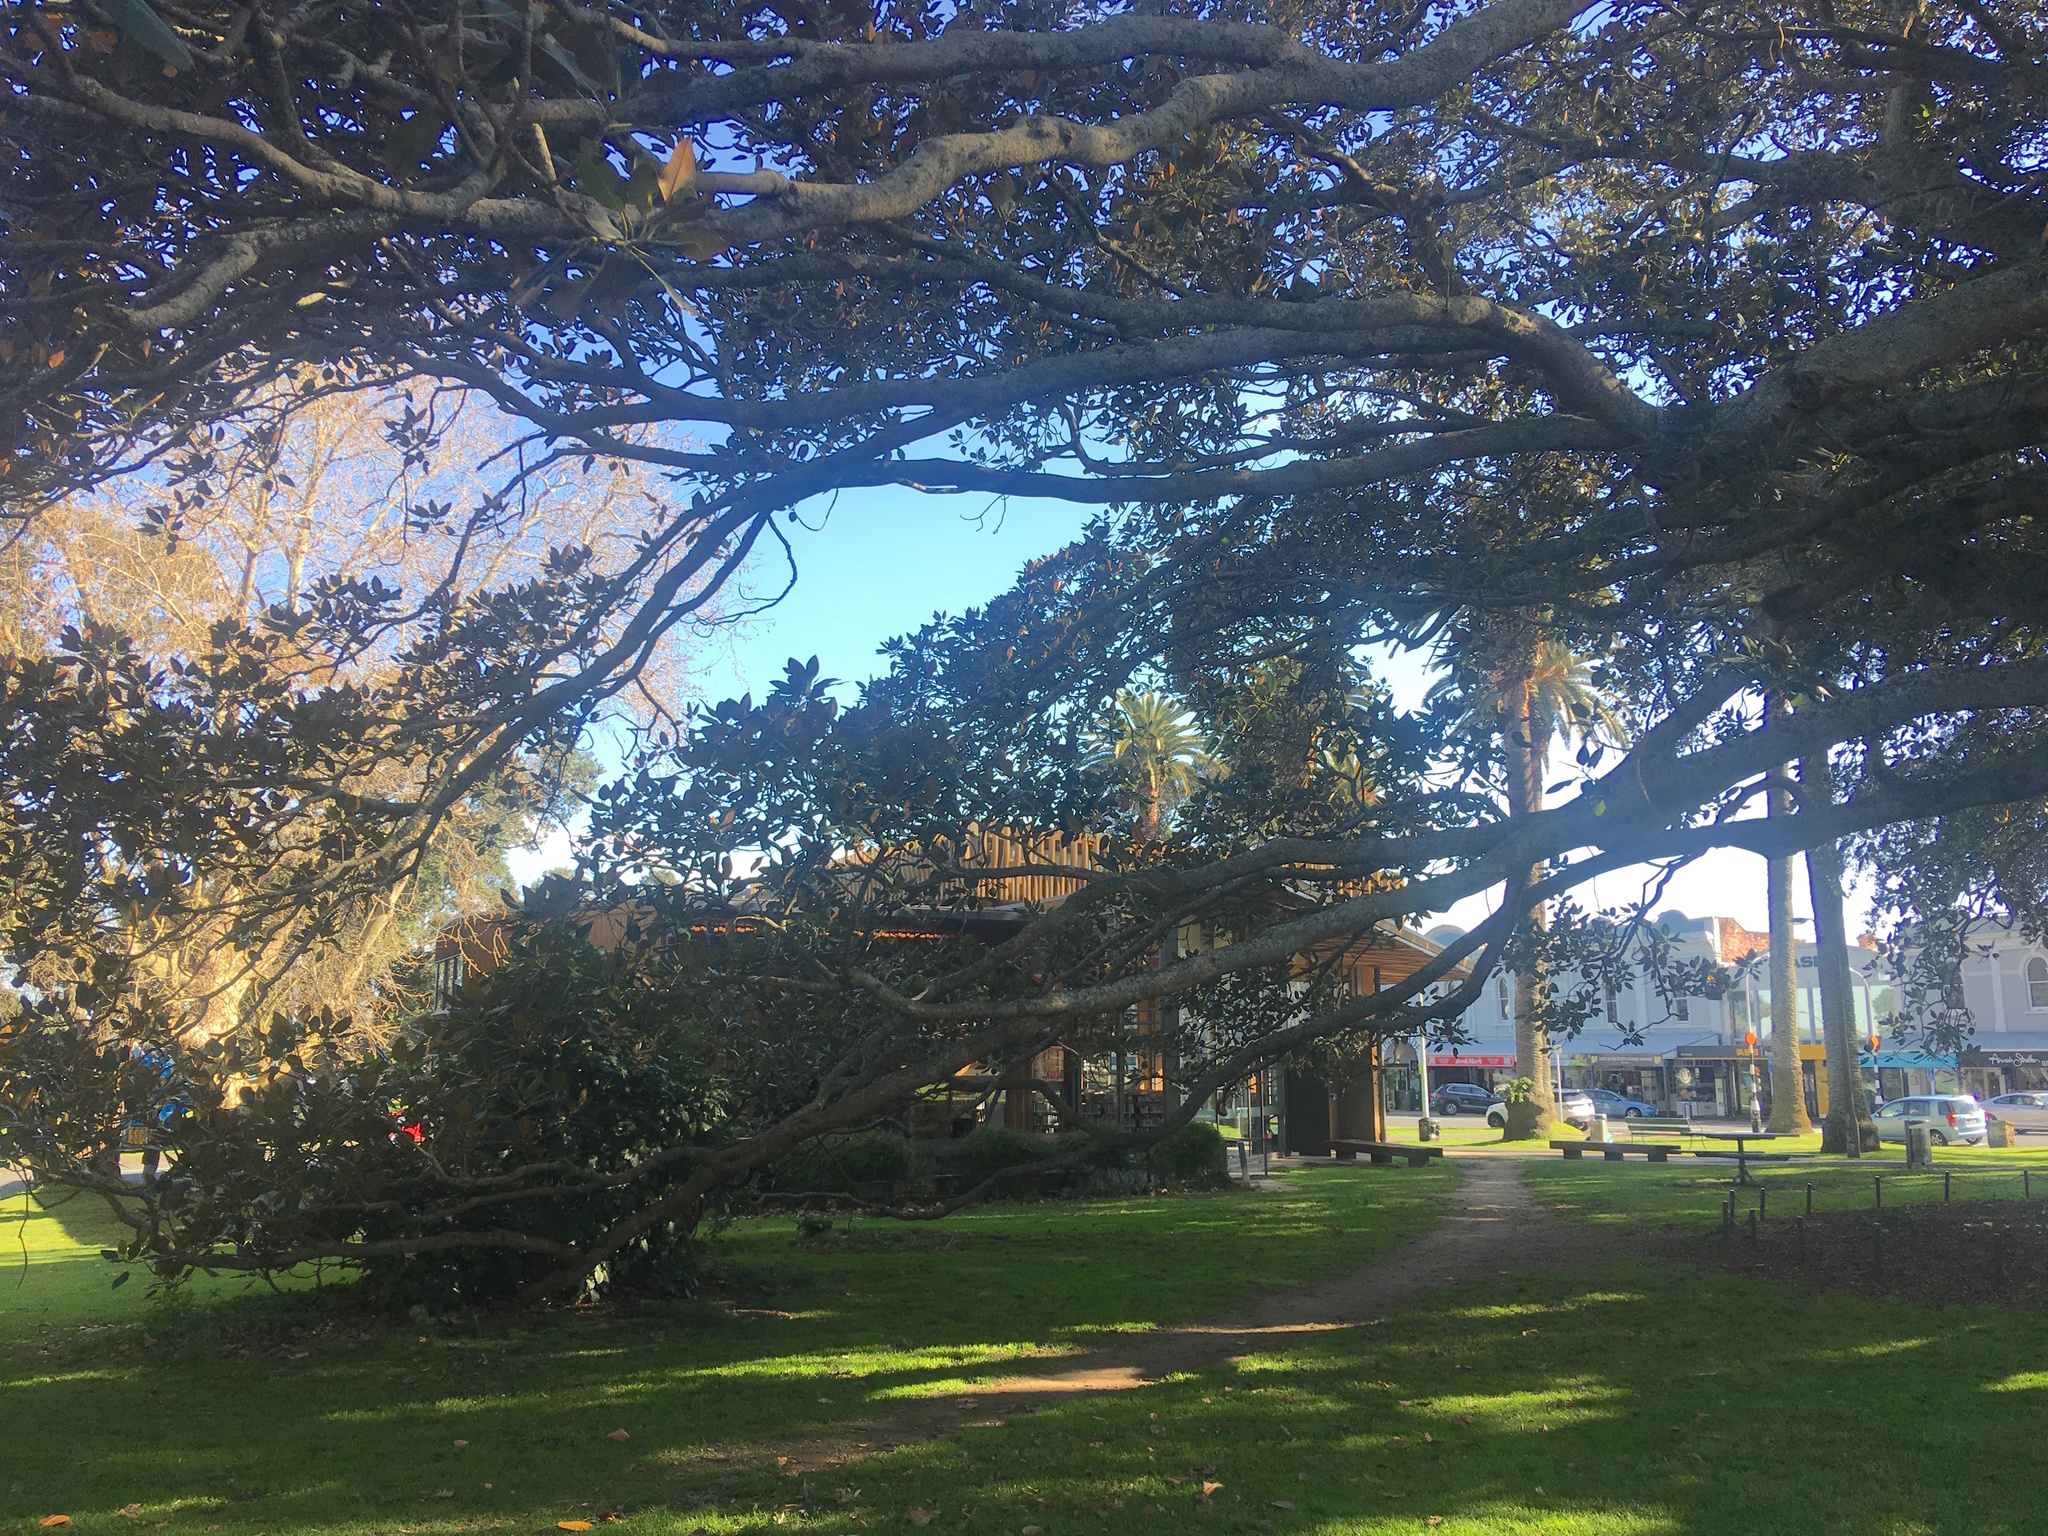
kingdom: Plantae
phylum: Tracheophyta
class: Magnoliopsida
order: Rosales
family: Moraceae
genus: Ficus
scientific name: Ficus macrophylla
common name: Moreton bay fig
